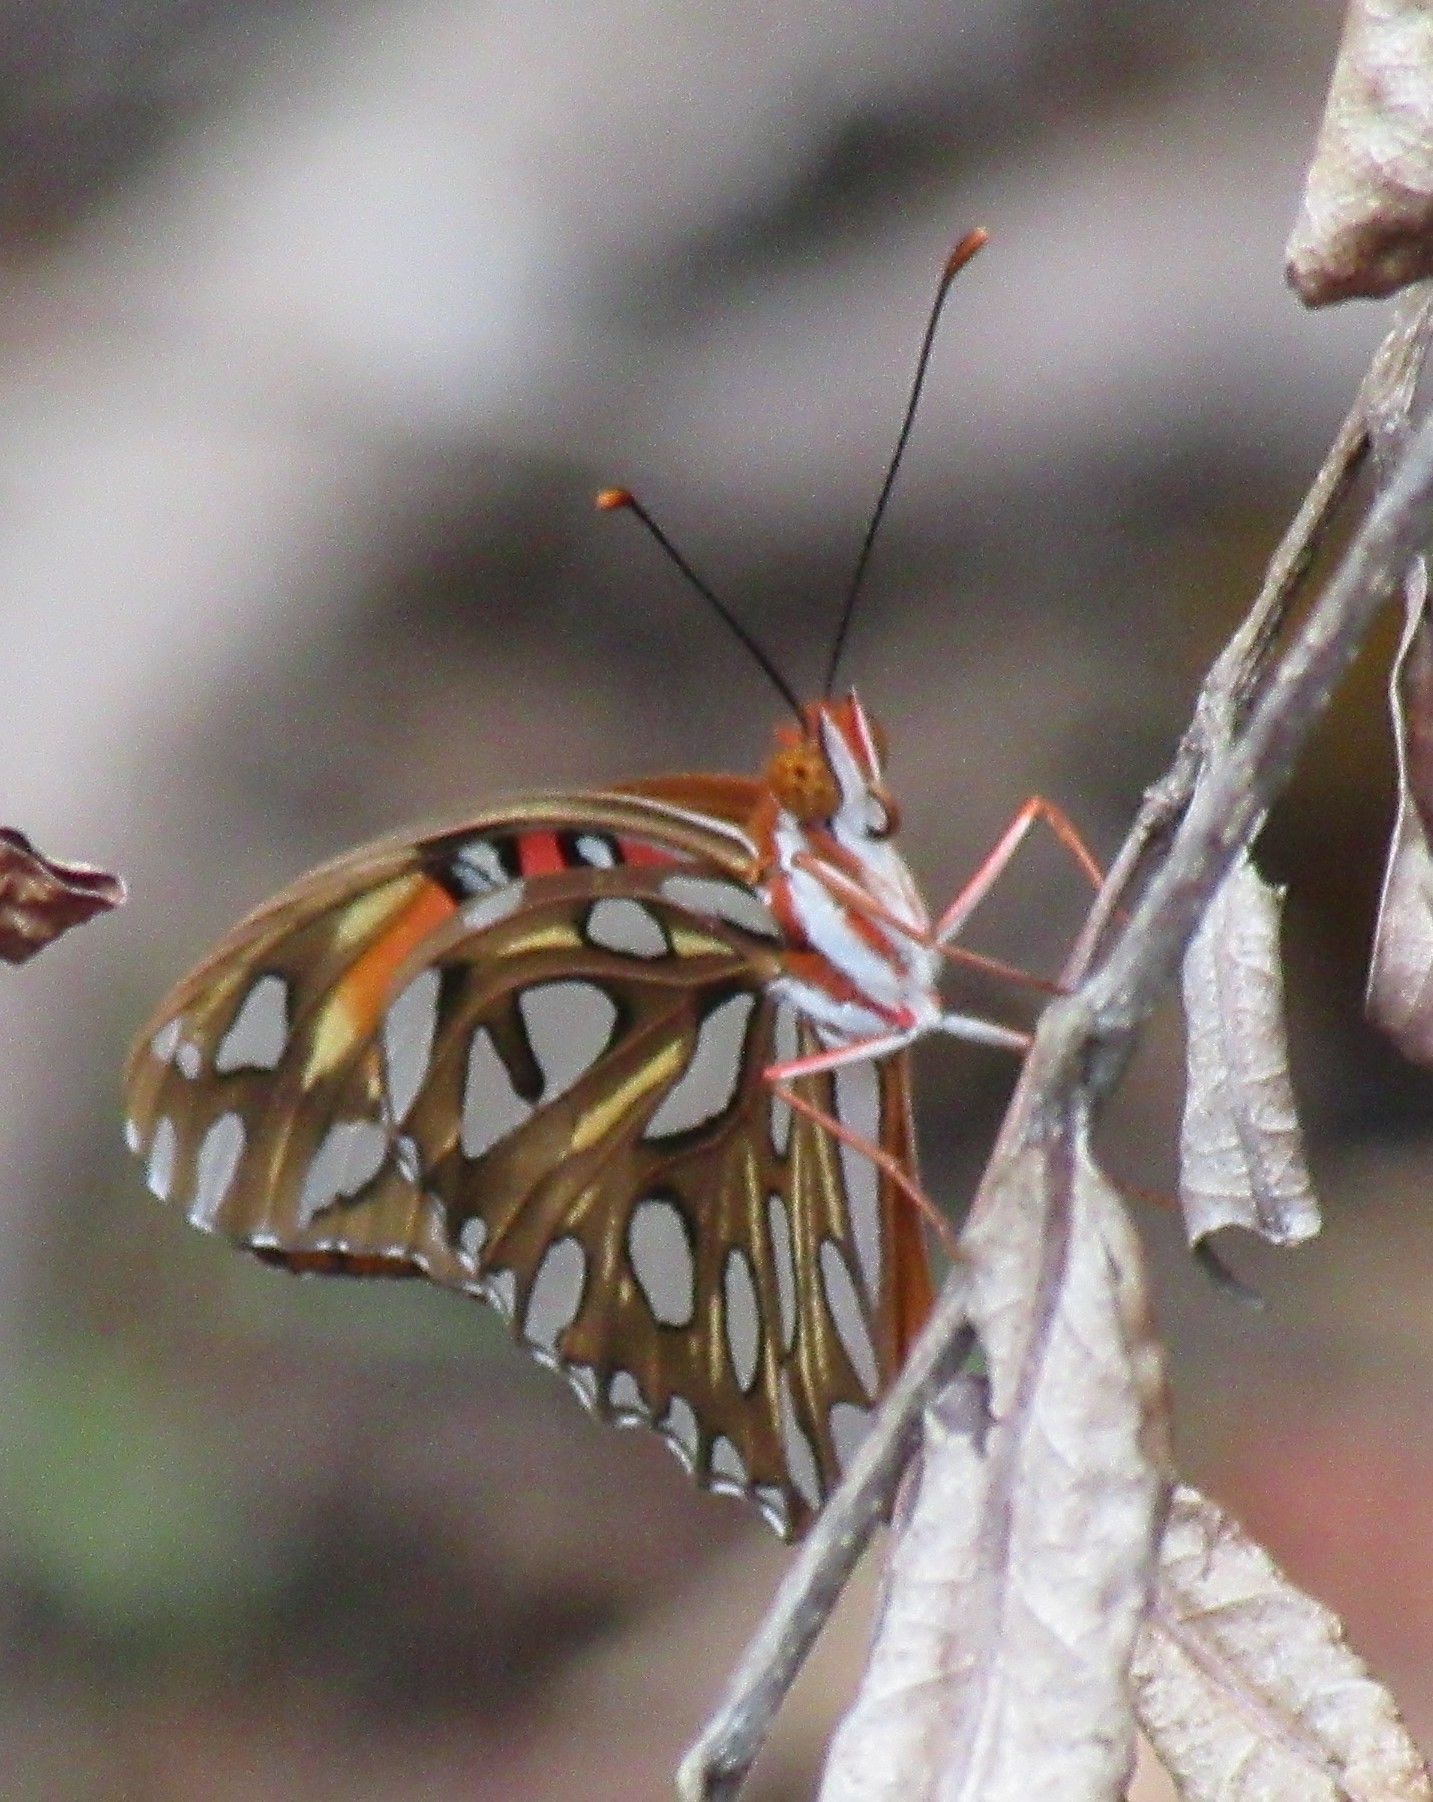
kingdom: Animalia
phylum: Arthropoda
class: Insecta
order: Lepidoptera
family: Nymphalidae
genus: Dione
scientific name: Dione vanillae
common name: Gulf fritillary
